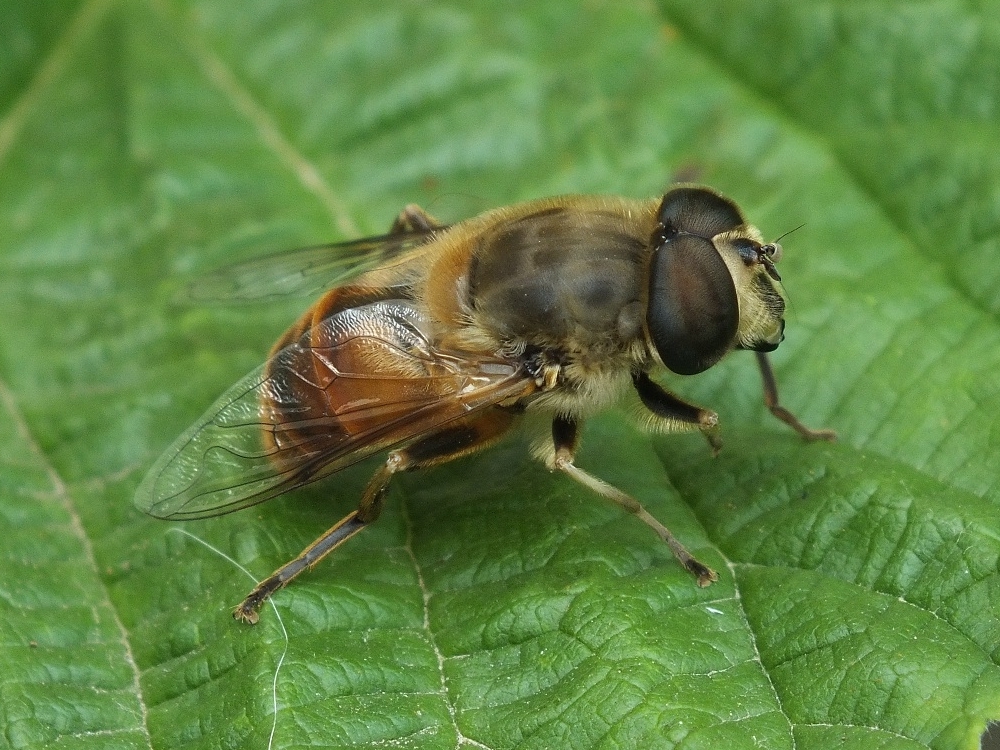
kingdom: Animalia
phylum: Arthropoda
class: Insecta
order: Diptera
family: Syrphidae
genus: Eristalis
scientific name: Eristalis tenax
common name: Drone fly
